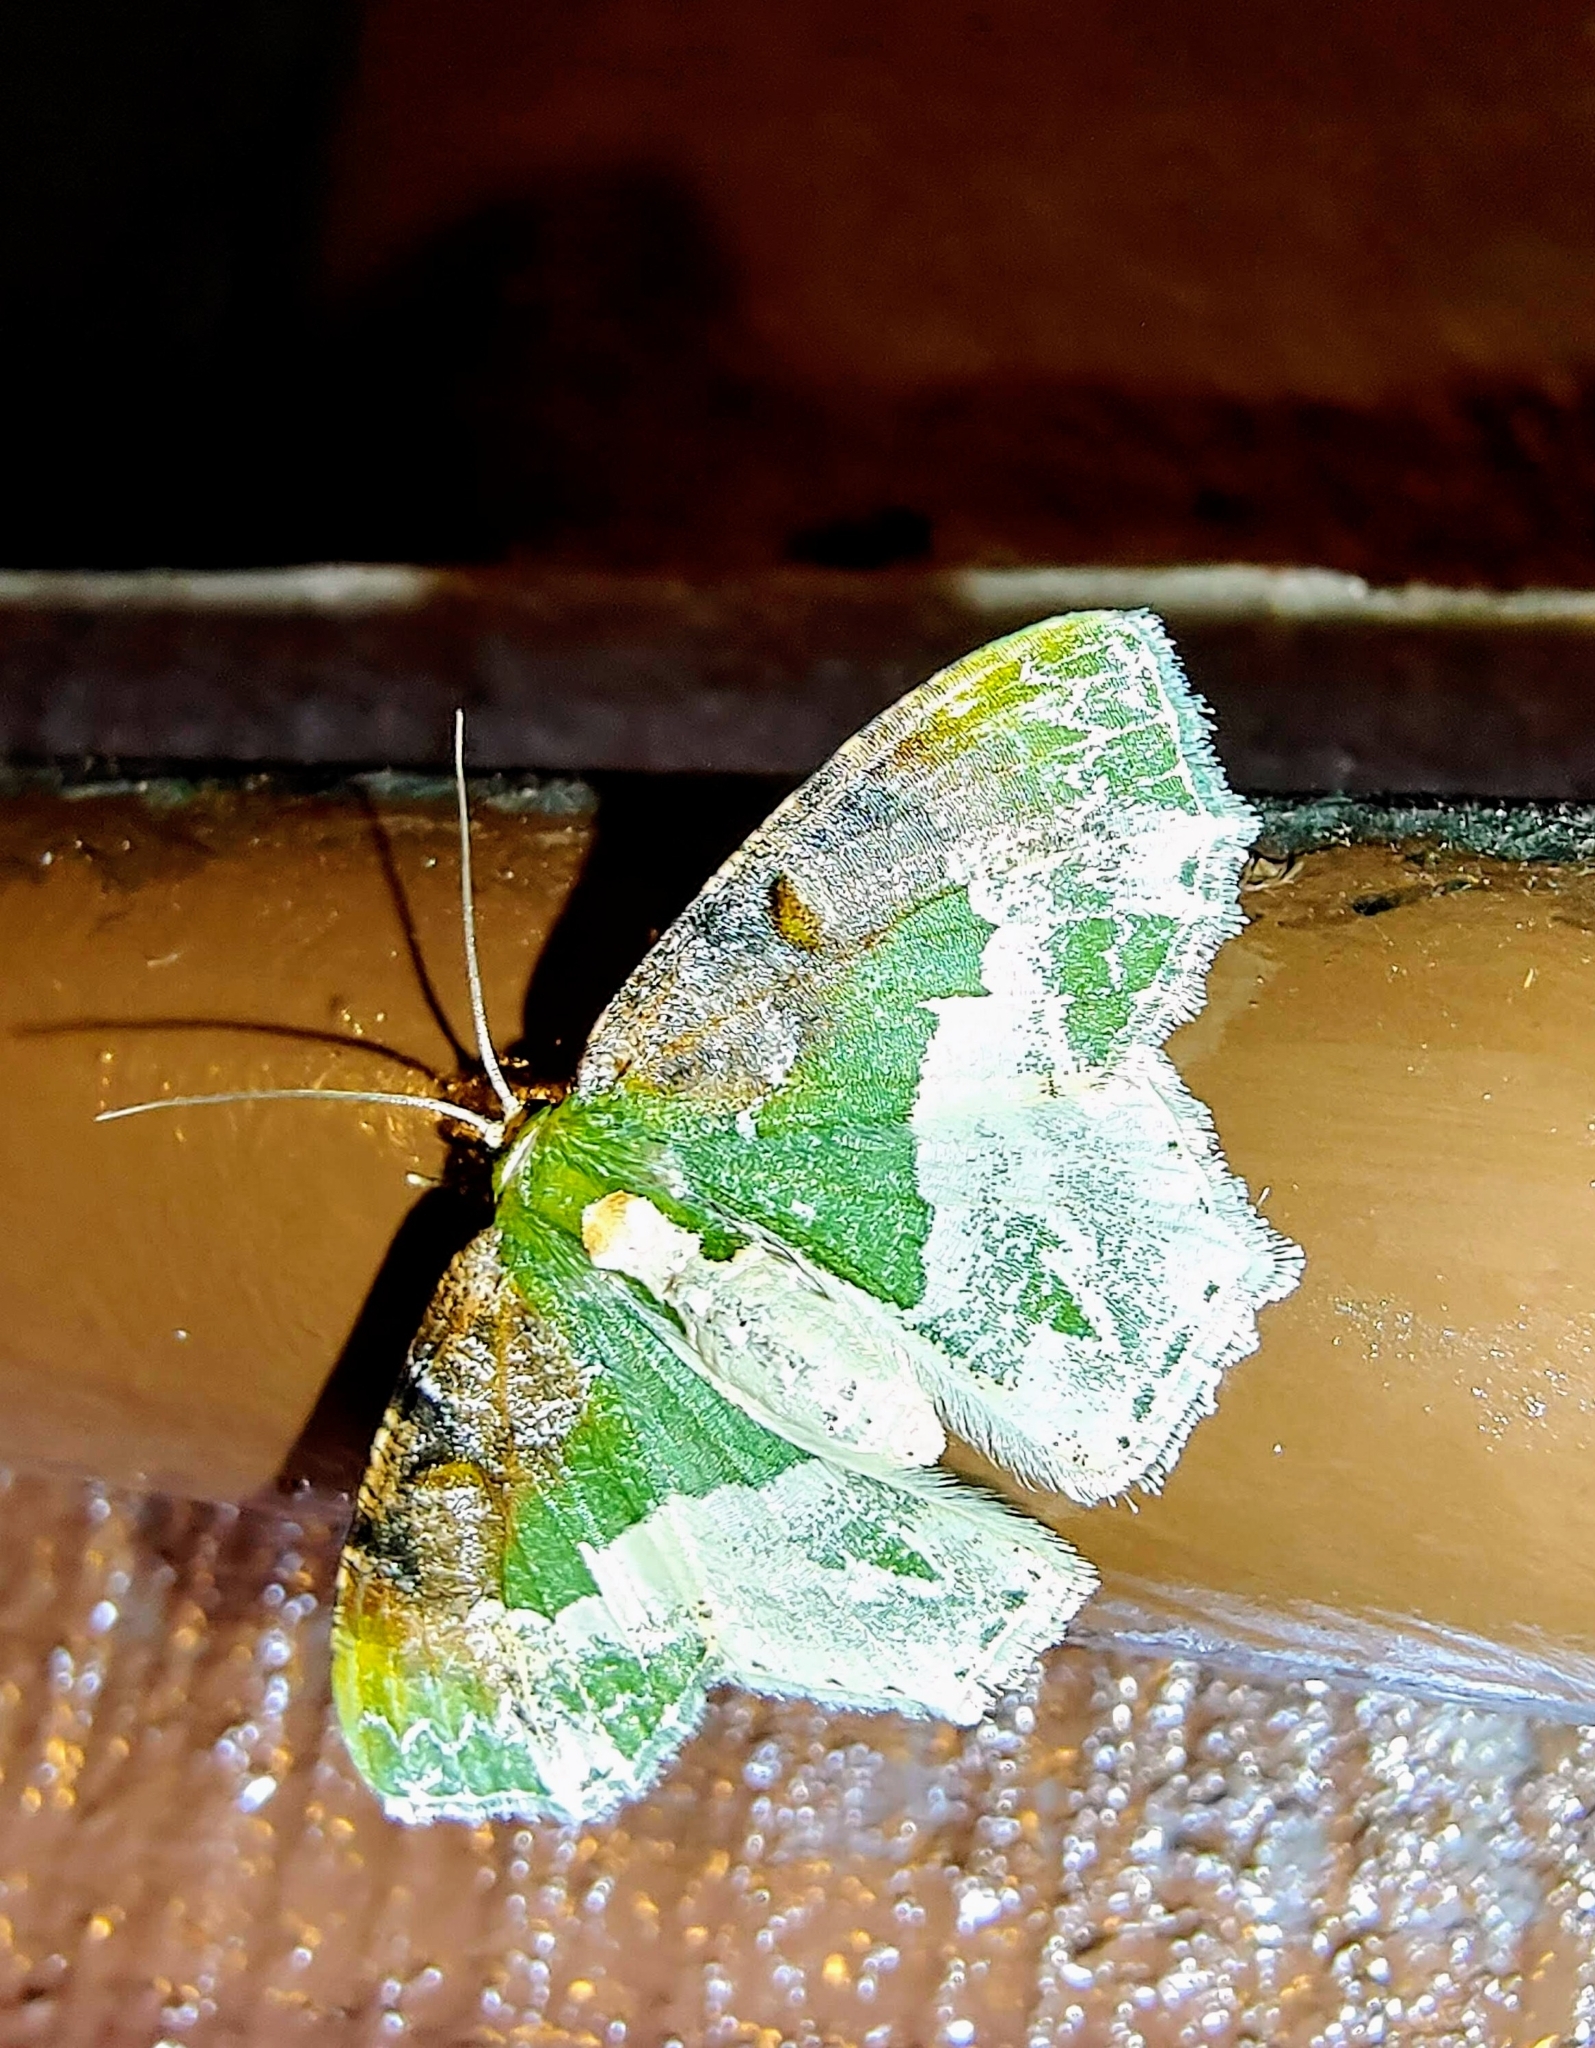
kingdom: Animalia
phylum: Arthropoda
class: Insecta
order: Lepidoptera
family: Geometridae
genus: Eucyclodes
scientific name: Eucyclodes semialba
